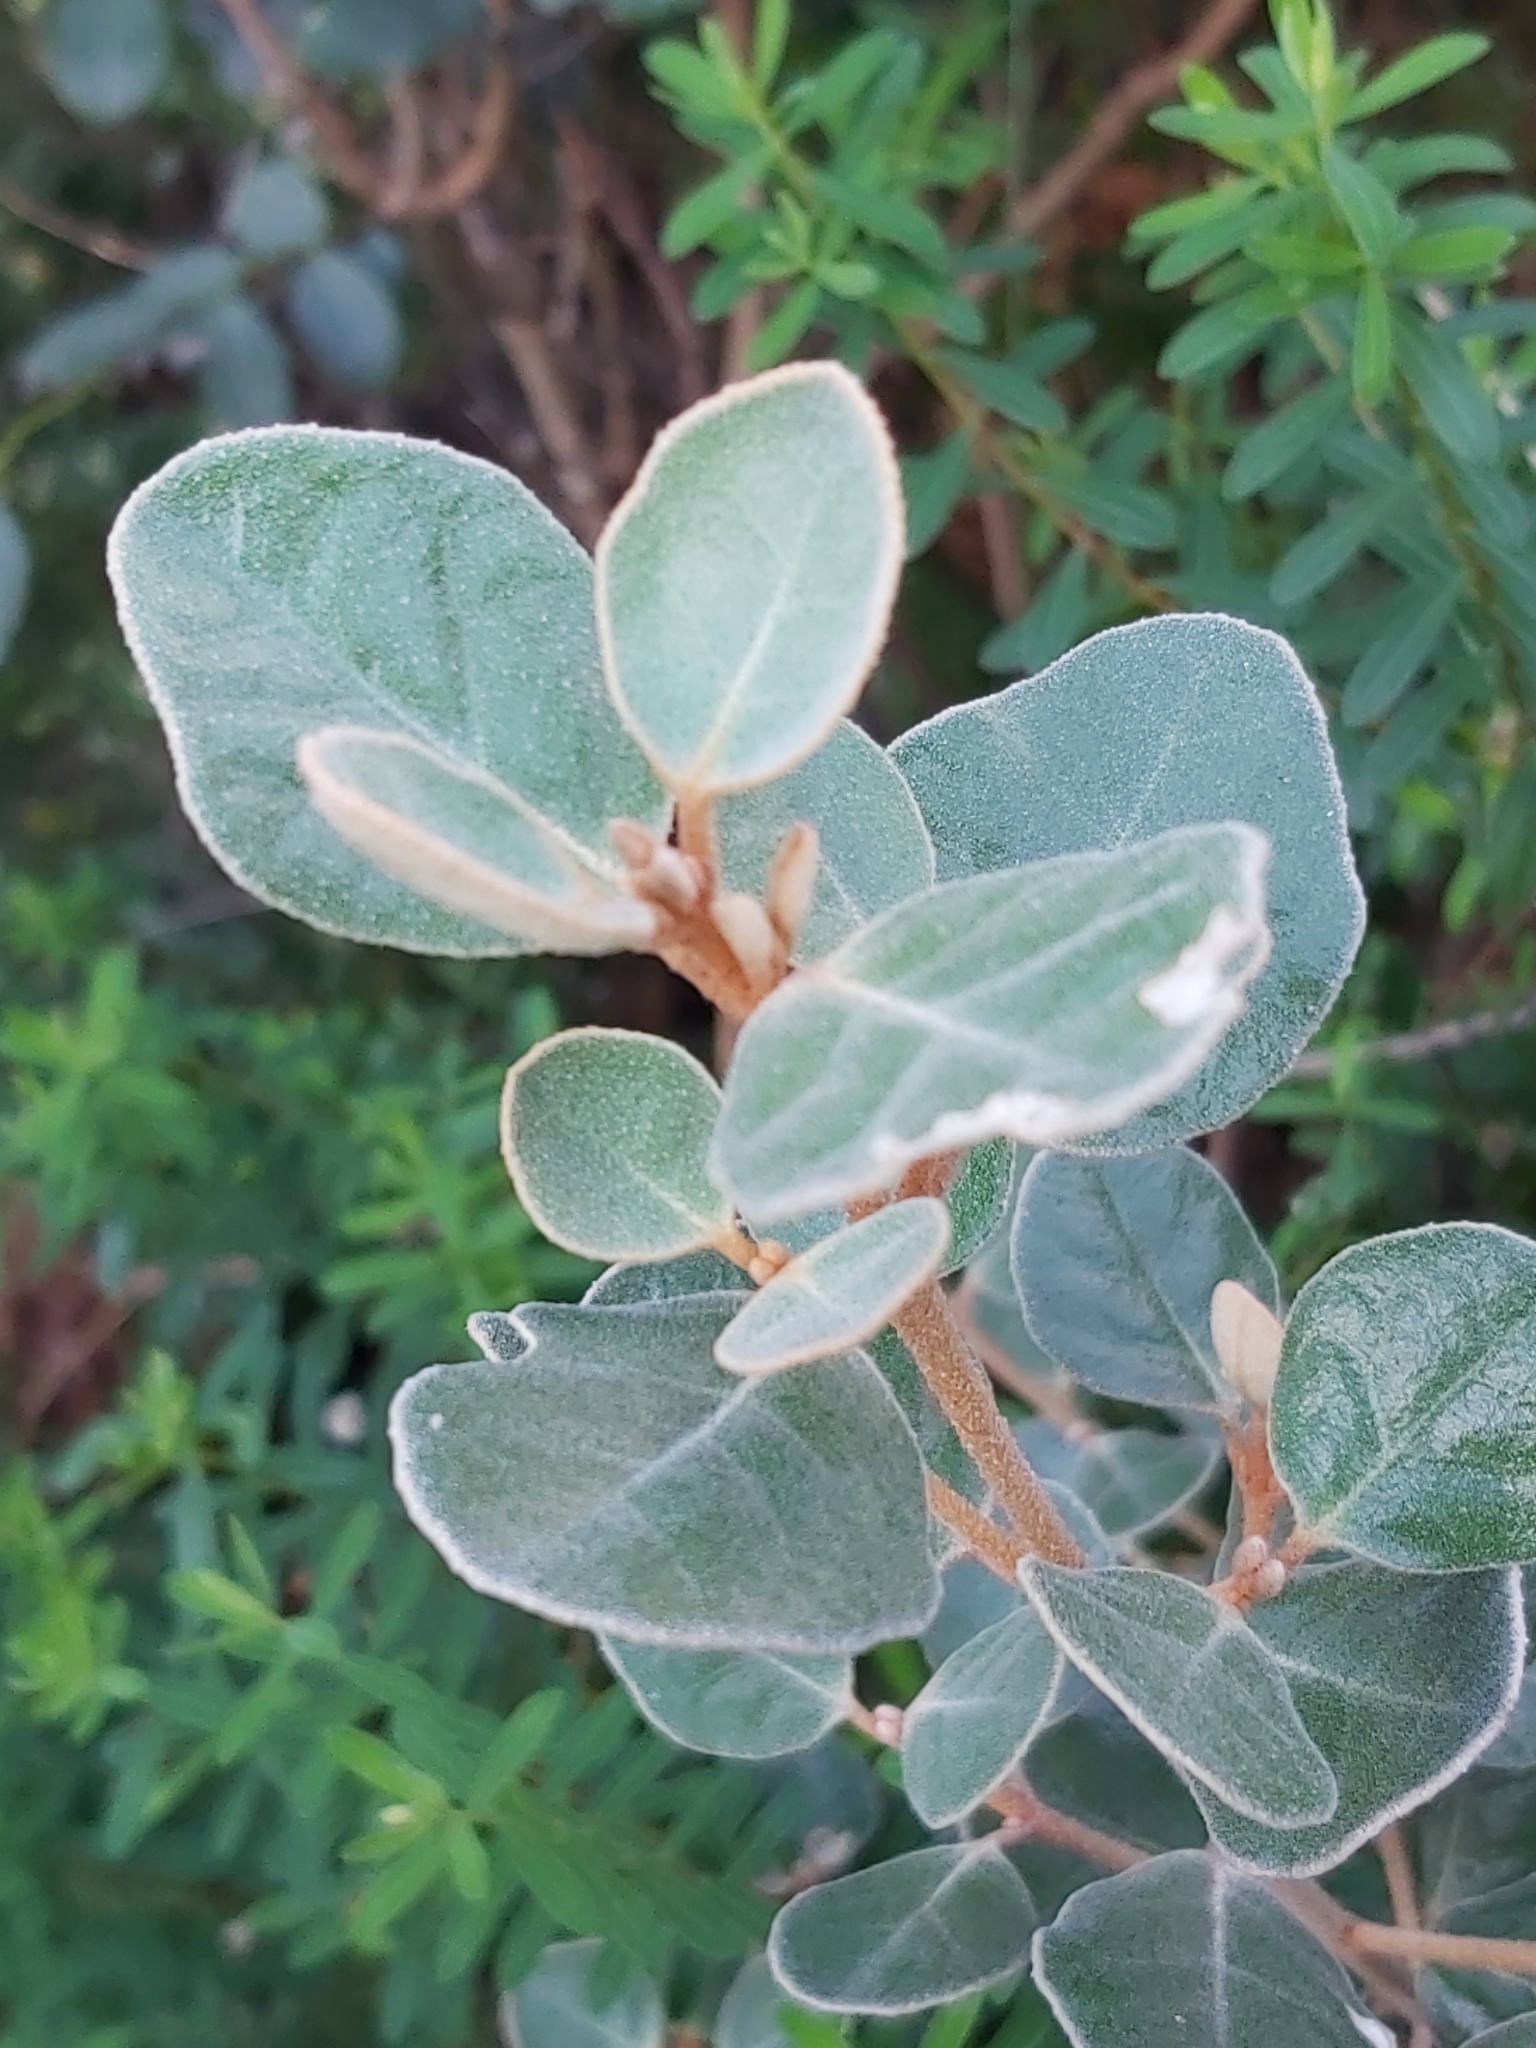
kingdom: Plantae
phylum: Tracheophyta
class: Magnoliopsida
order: Sapindales
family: Rutaceae
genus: Correa
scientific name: Correa alba
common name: White correa
